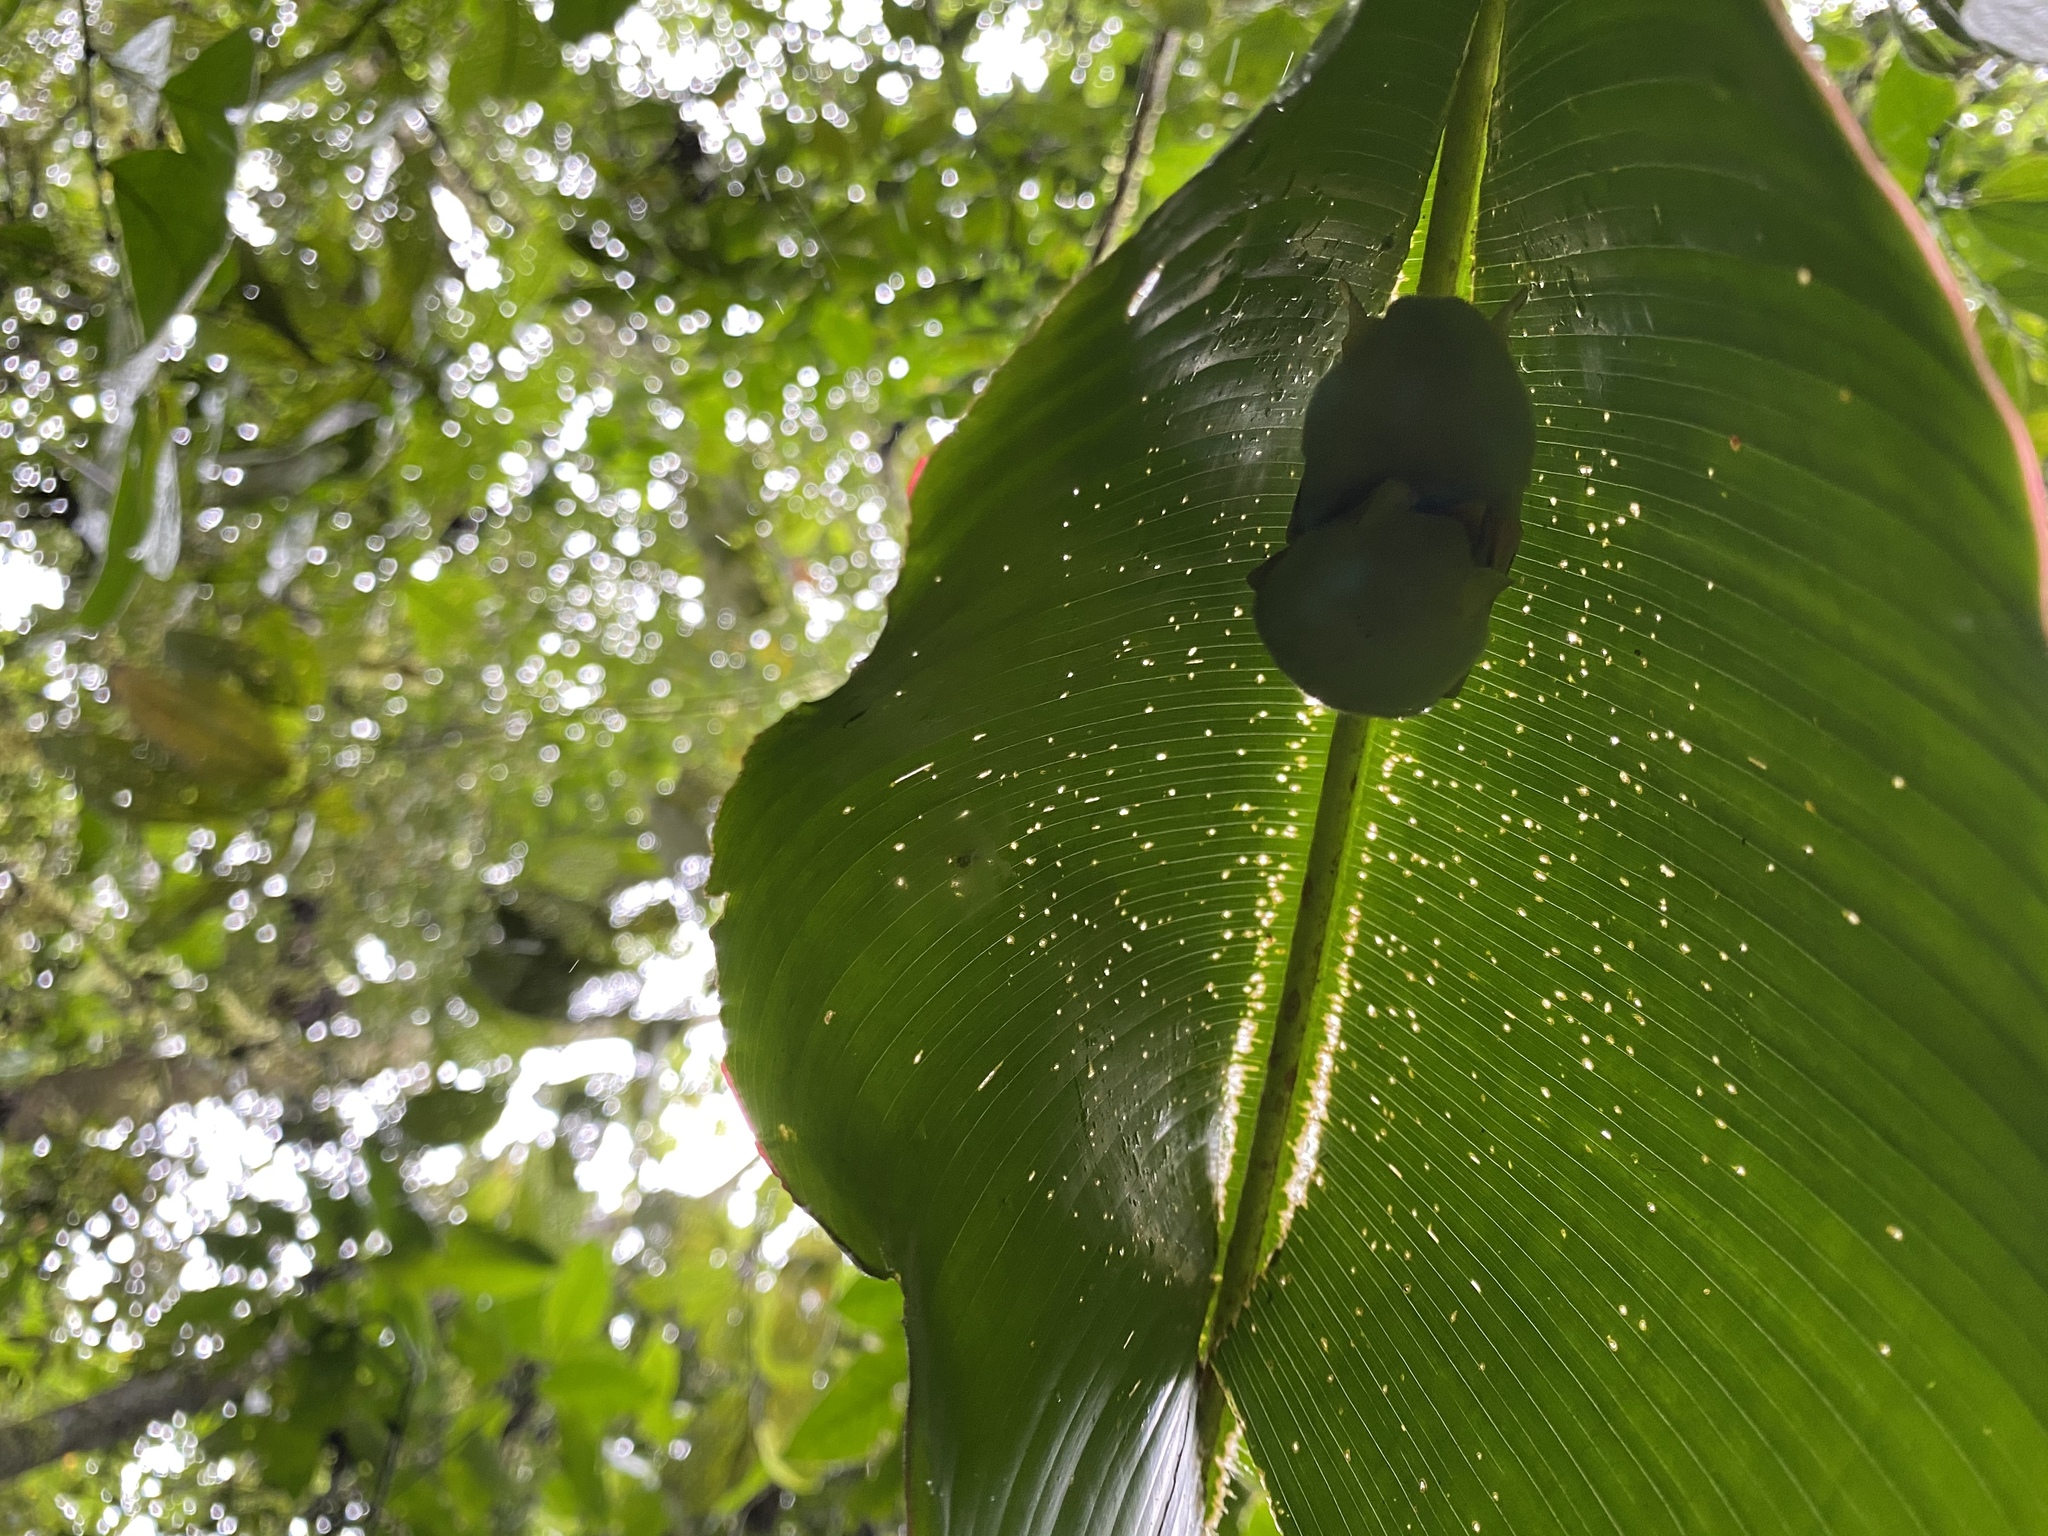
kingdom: Animalia
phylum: Chordata
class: Mammalia
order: Chiroptera
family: Phyllostomidae
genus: Ectophylla
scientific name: Ectophylla alba
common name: Honduran white bat
